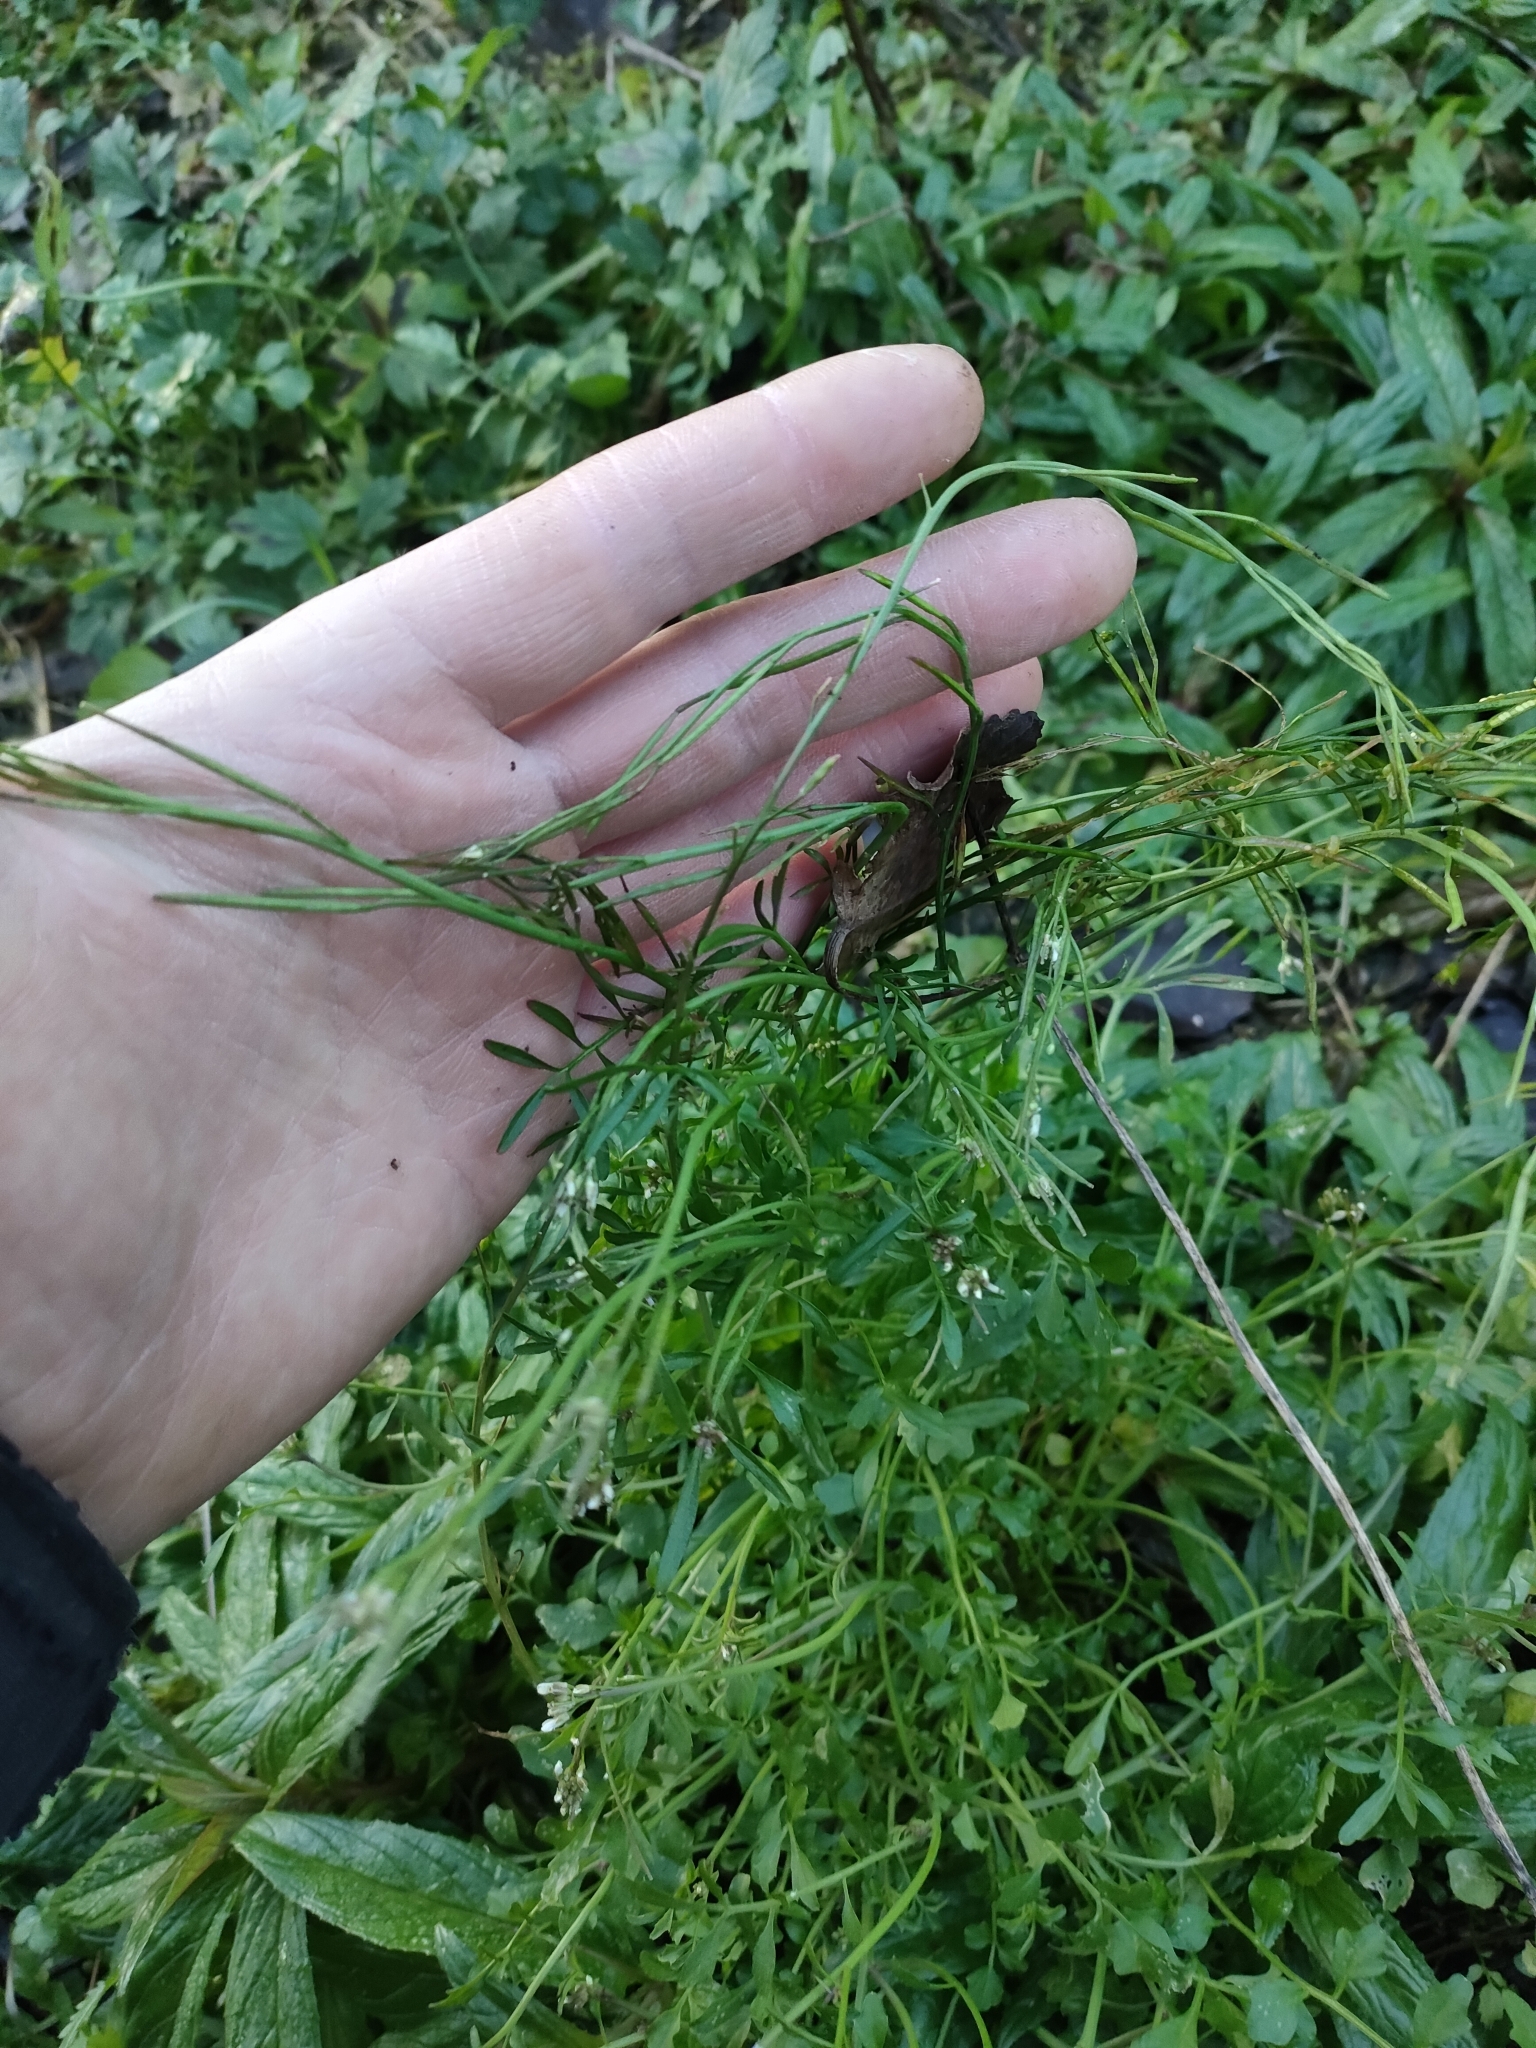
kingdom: Plantae
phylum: Tracheophyta
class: Magnoliopsida
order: Brassicales
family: Brassicaceae
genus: Cardamine
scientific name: Cardamine hirsuta
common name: Hairy bittercress
